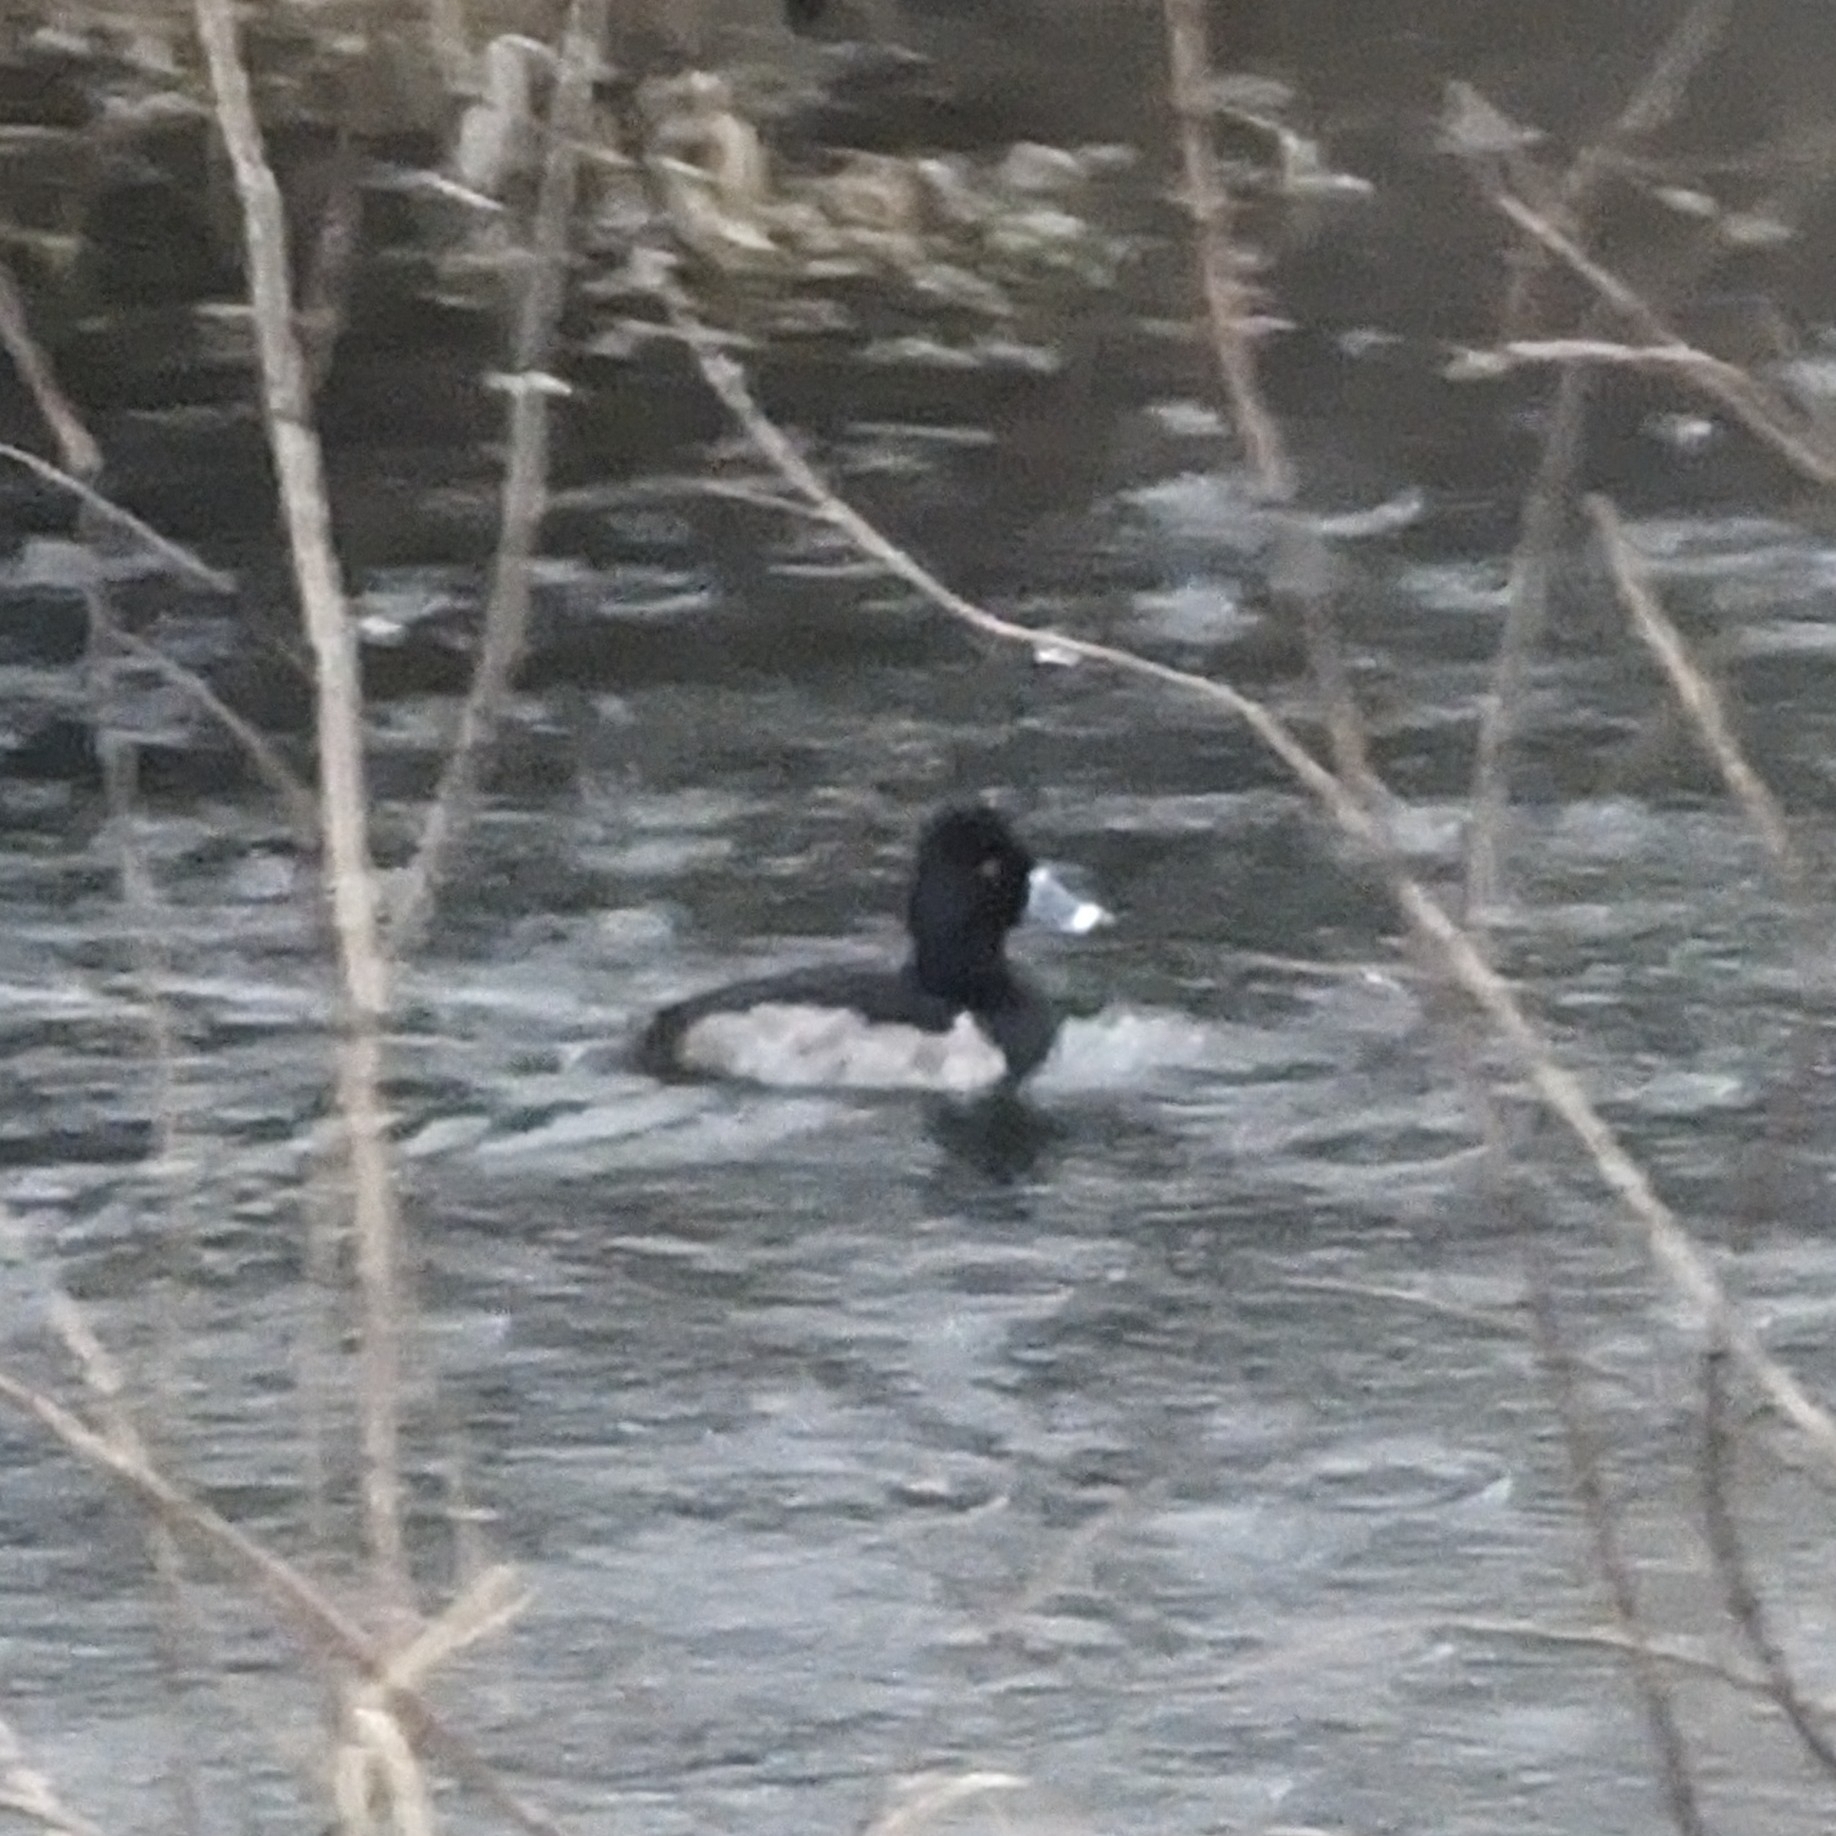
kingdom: Animalia
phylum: Chordata
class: Aves
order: Anseriformes
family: Anatidae
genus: Aythya
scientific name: Aythya collaris
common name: Ring-necked duck
